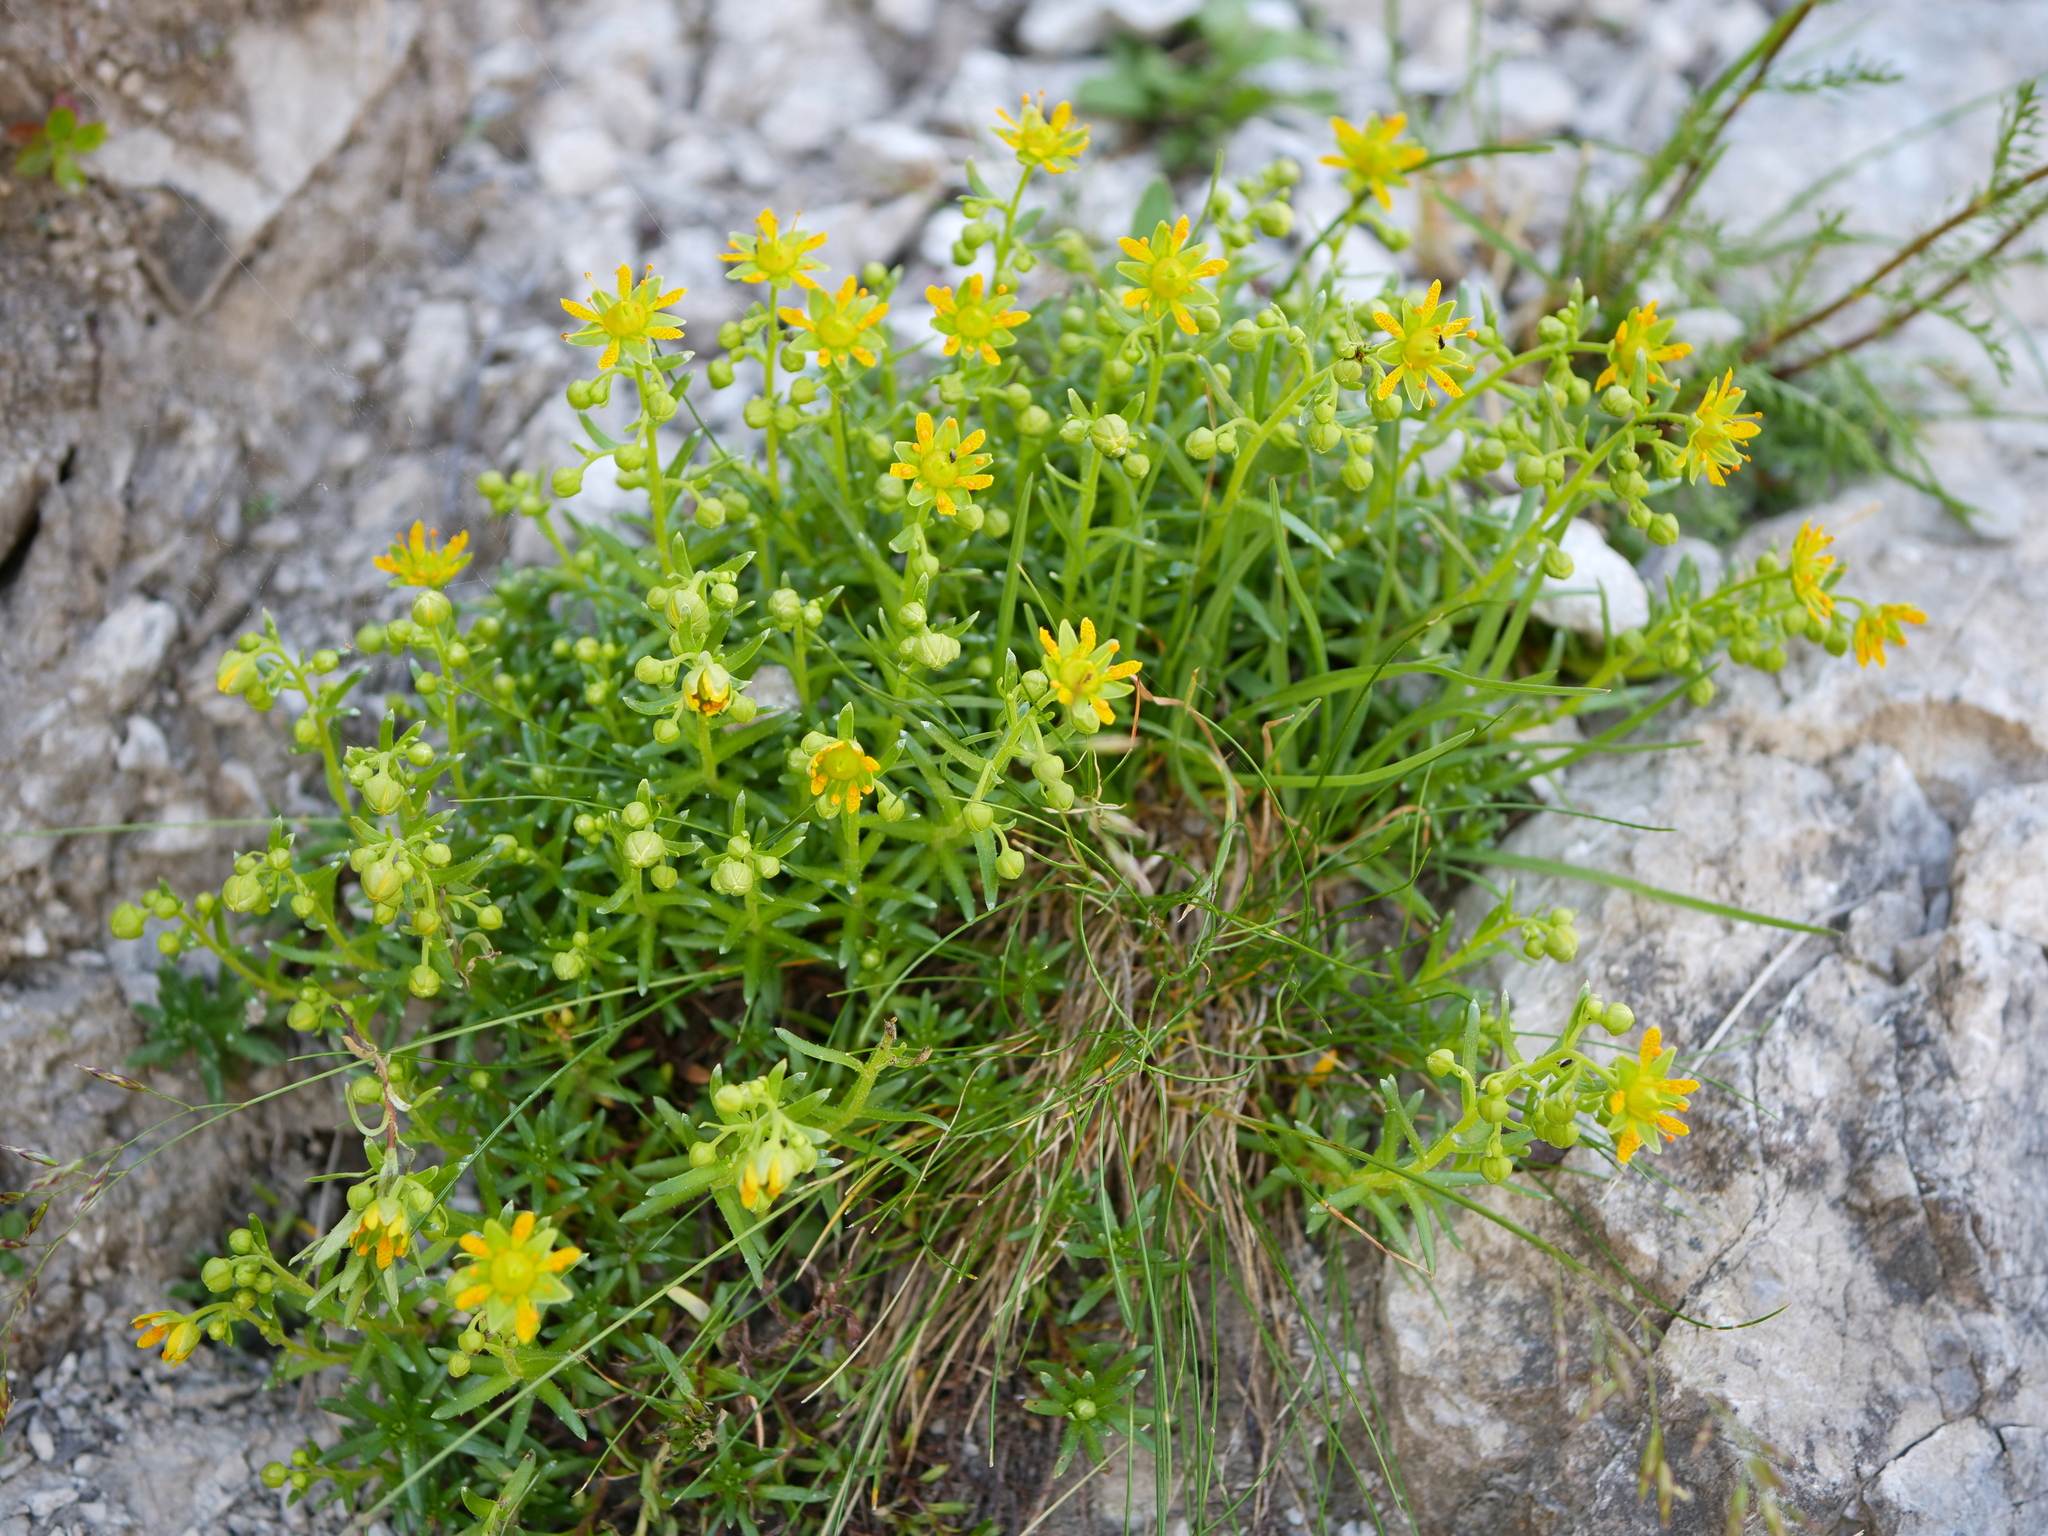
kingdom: Plantae
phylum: Tracheophyta
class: Magnoliopsida
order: Saxifragales
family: Saxifragaceae
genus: Saxifraga
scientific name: Saxifraga aizoides
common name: Yellow mountain saxifrage
